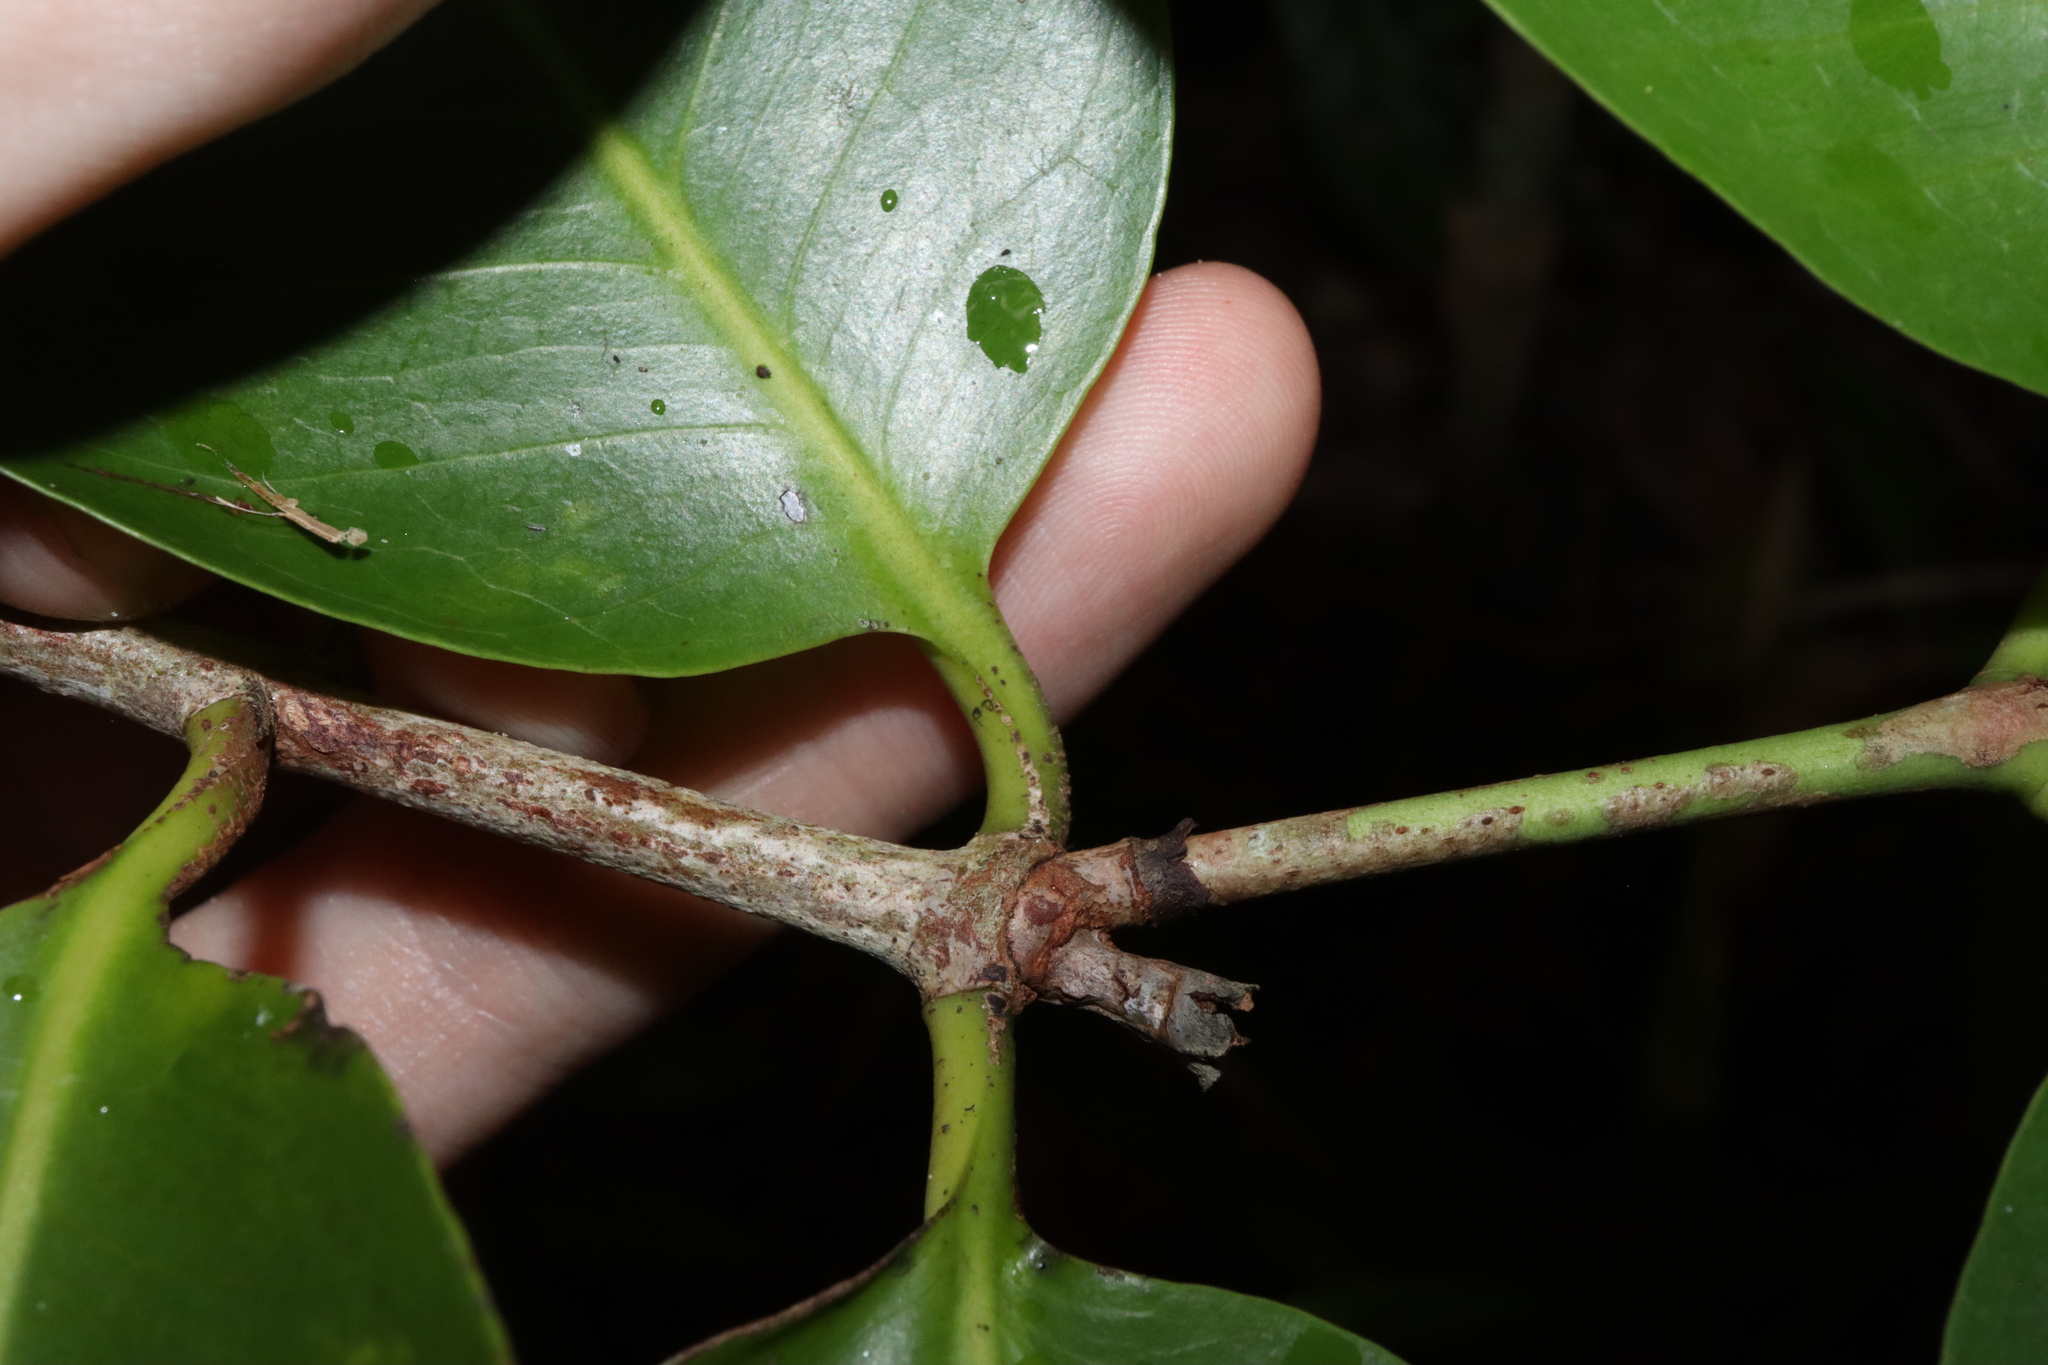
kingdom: Plantae
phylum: Tracheophyta
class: Magnoliopsida
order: Gentianales
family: Rubiaceae
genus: Ixora
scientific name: Ixora timorensis
